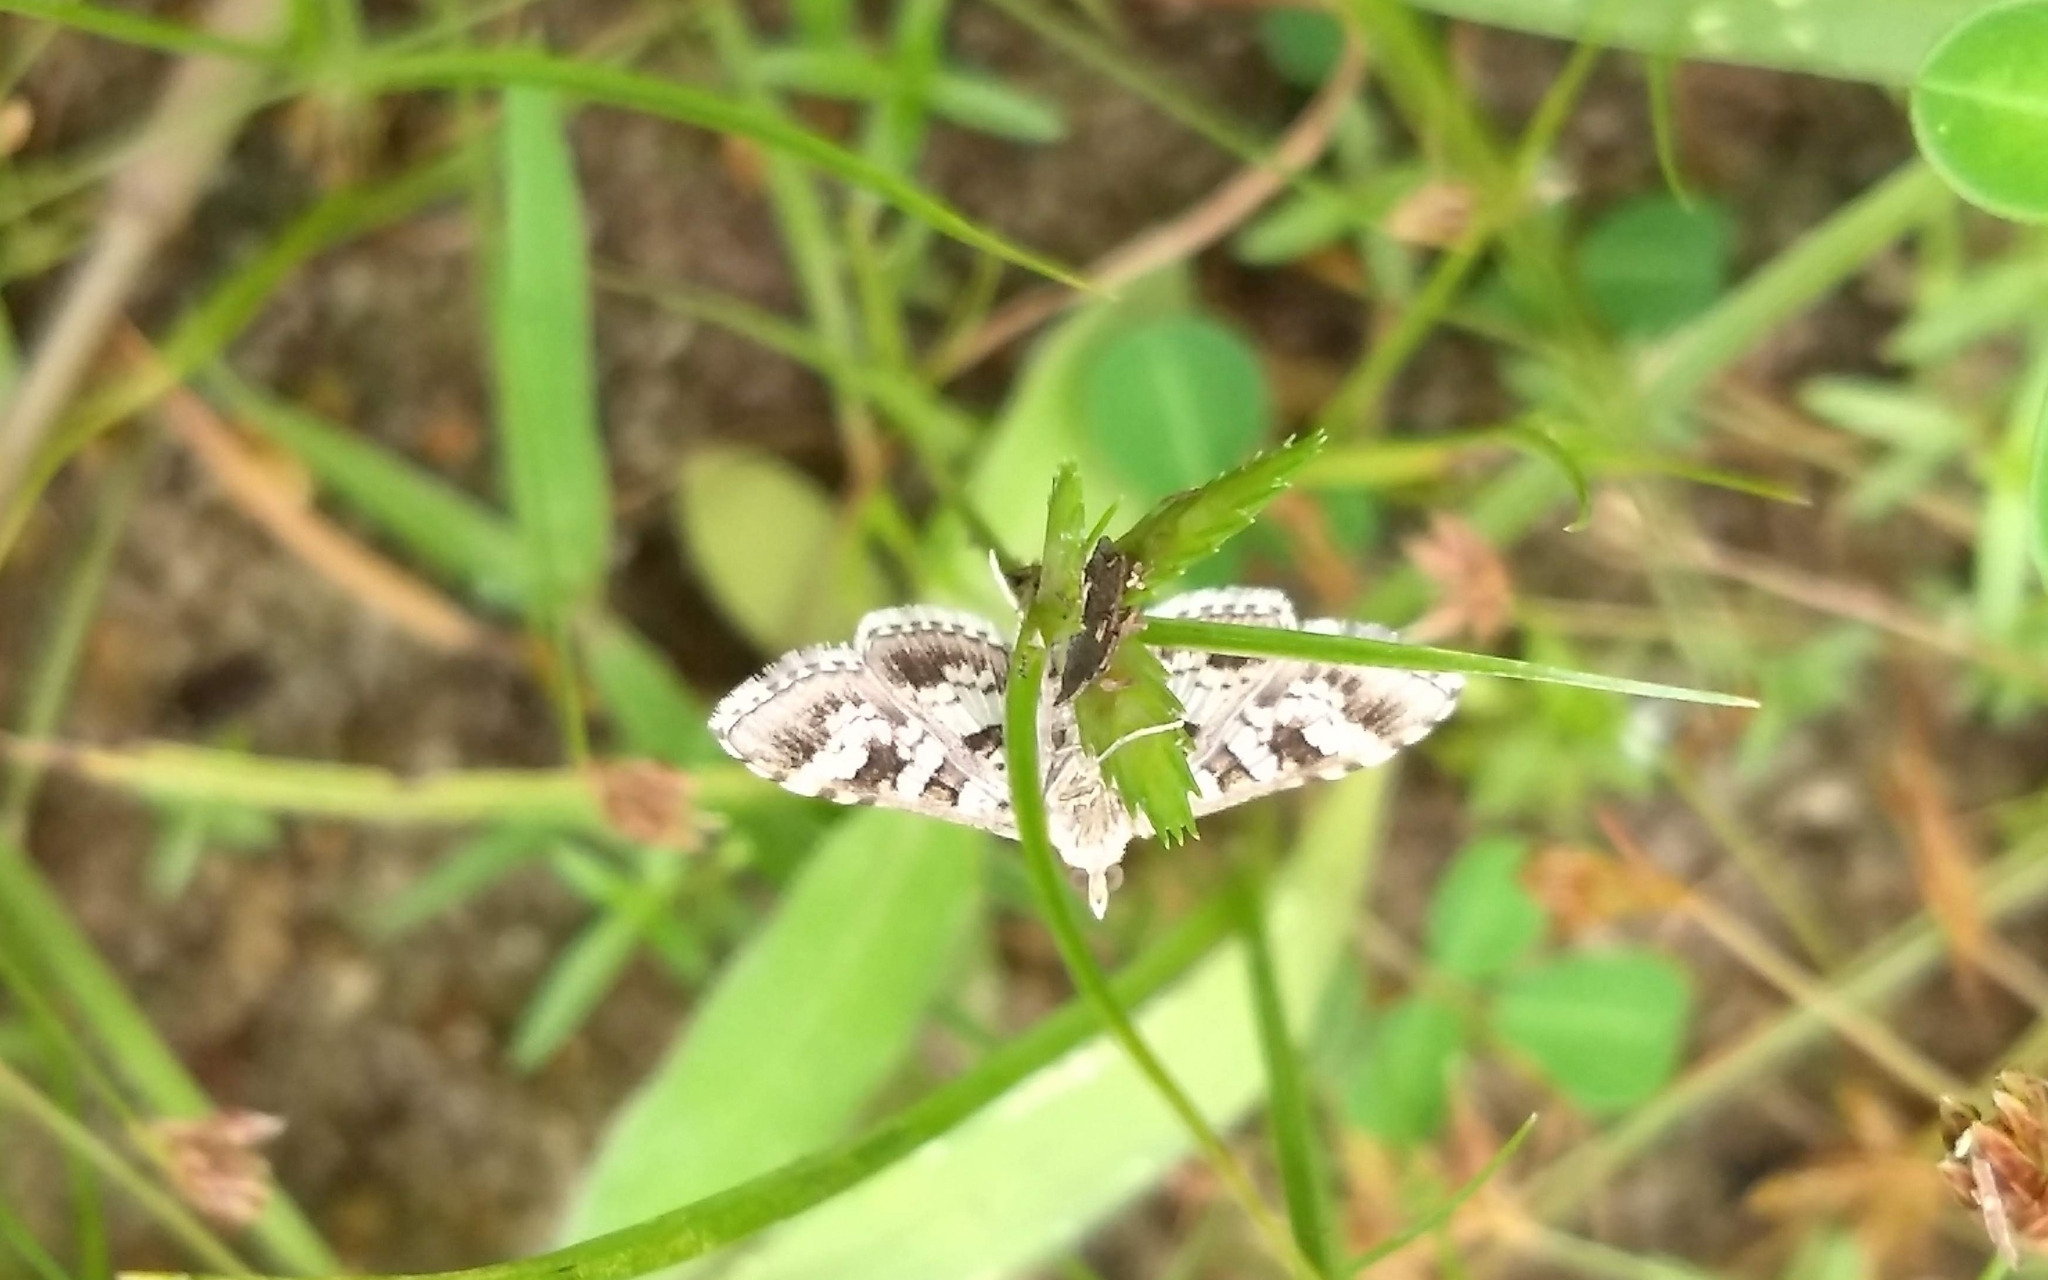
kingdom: Animalia
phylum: Arthropoda
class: Insecta
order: Lepidoptera
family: Crambidae
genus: Sameodes
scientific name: Sameodes cancellalis
